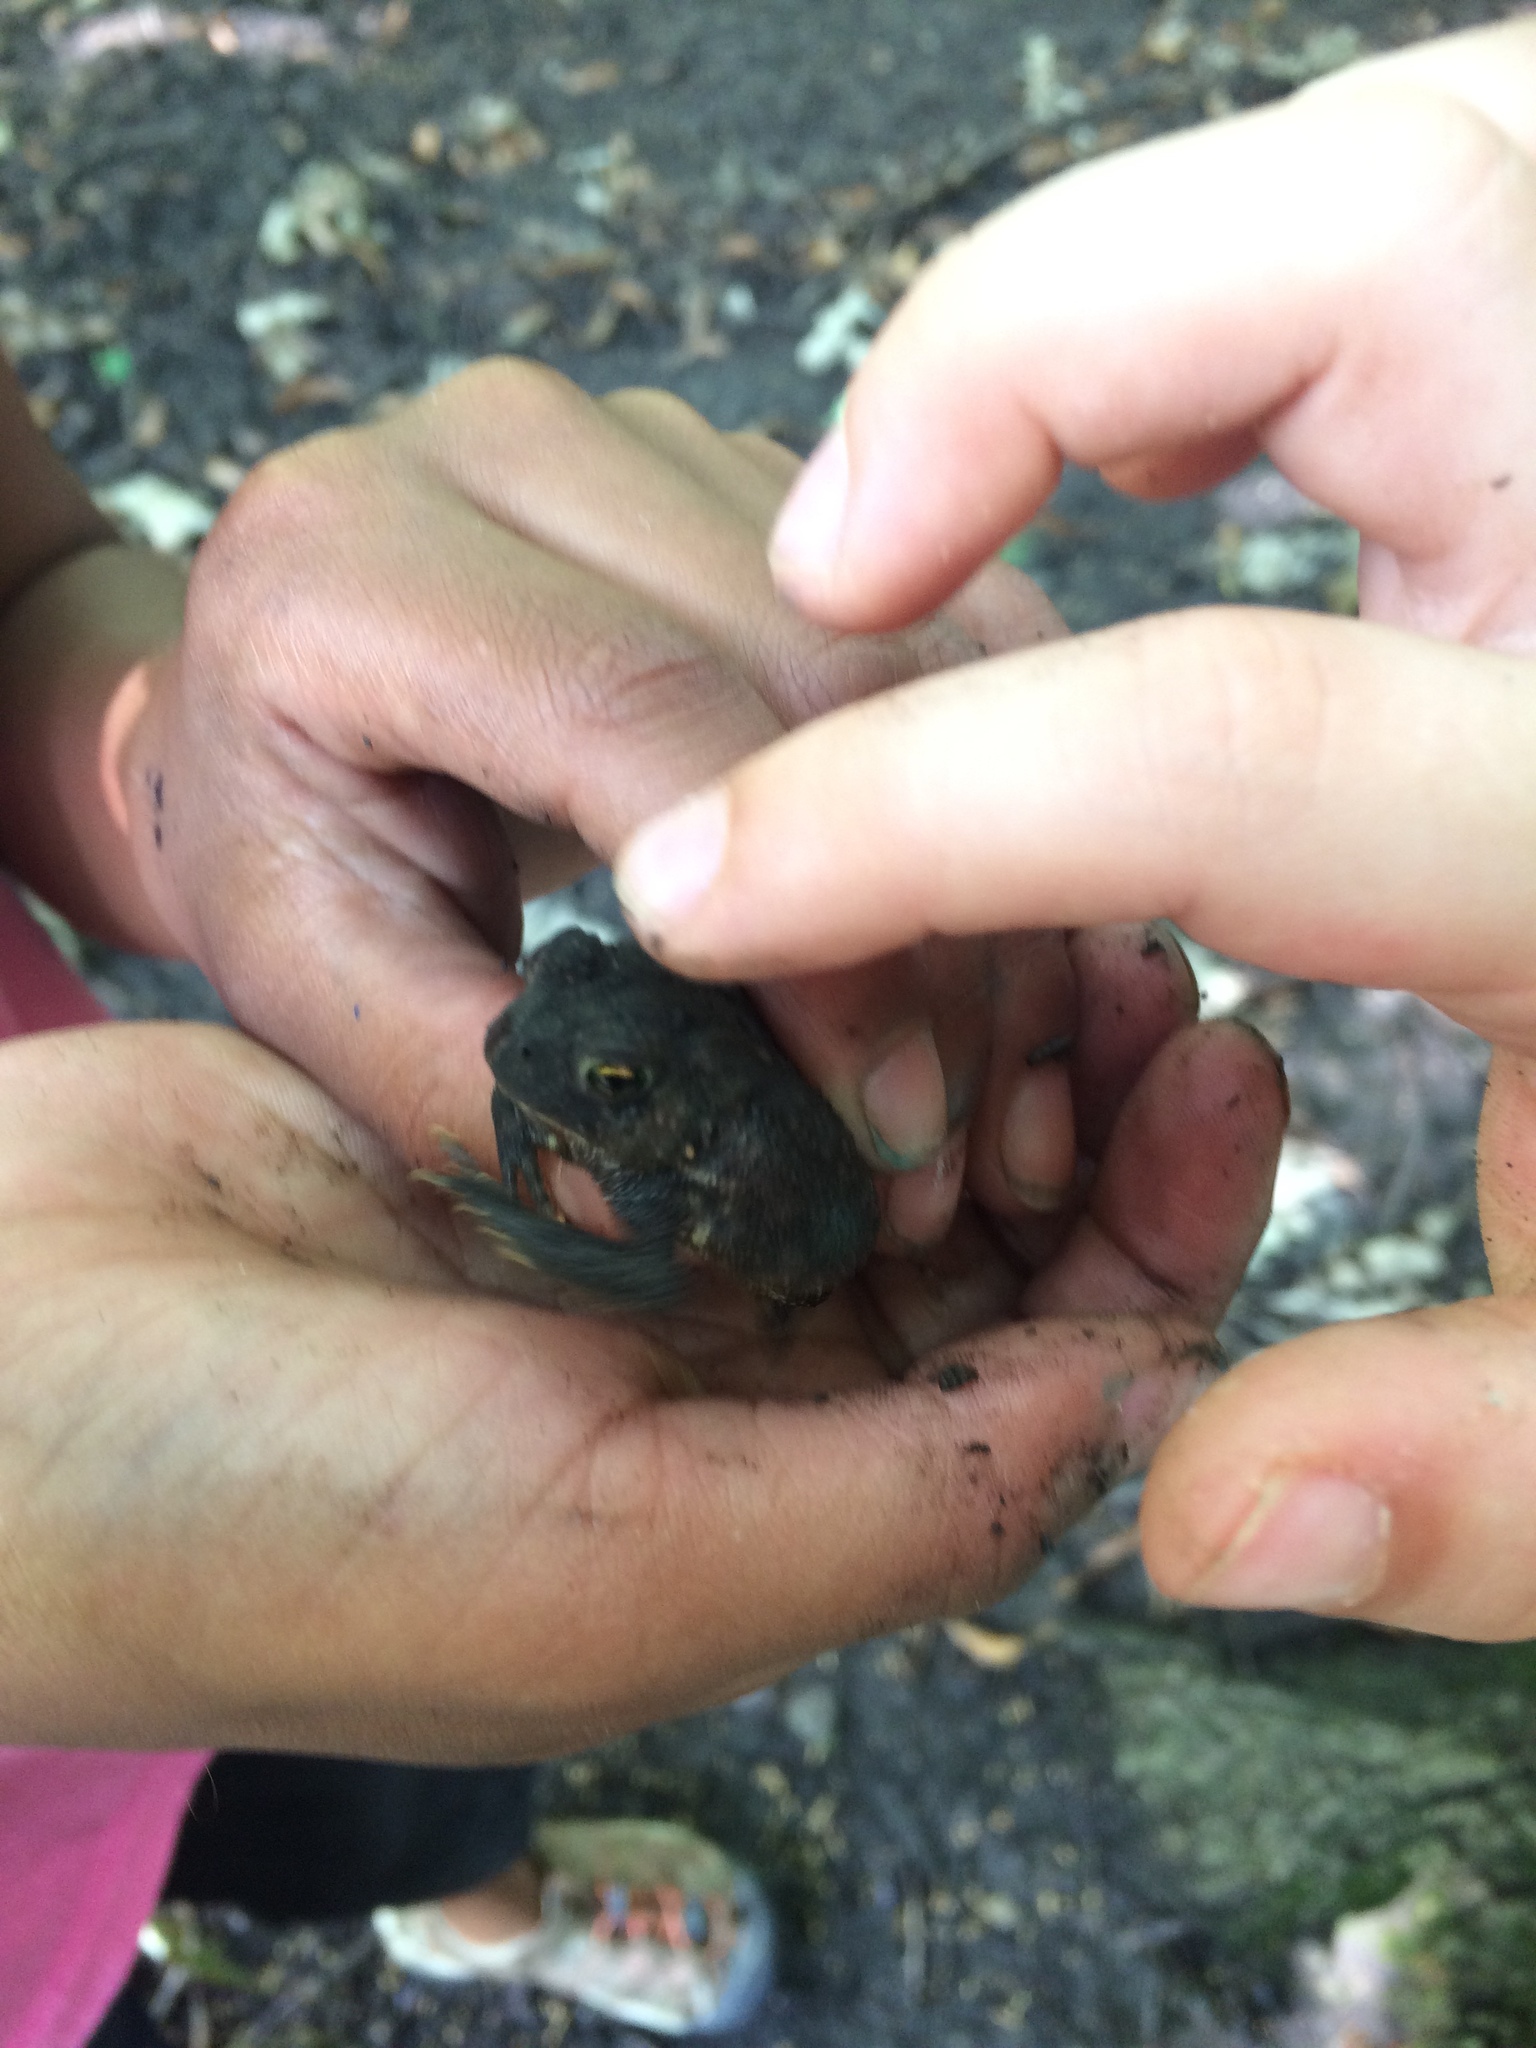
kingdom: Animalia
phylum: Chordata
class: Amphibia
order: Anura
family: Bufonidae
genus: Anaxyrus
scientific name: Anaxyrus americanus
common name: American toad
